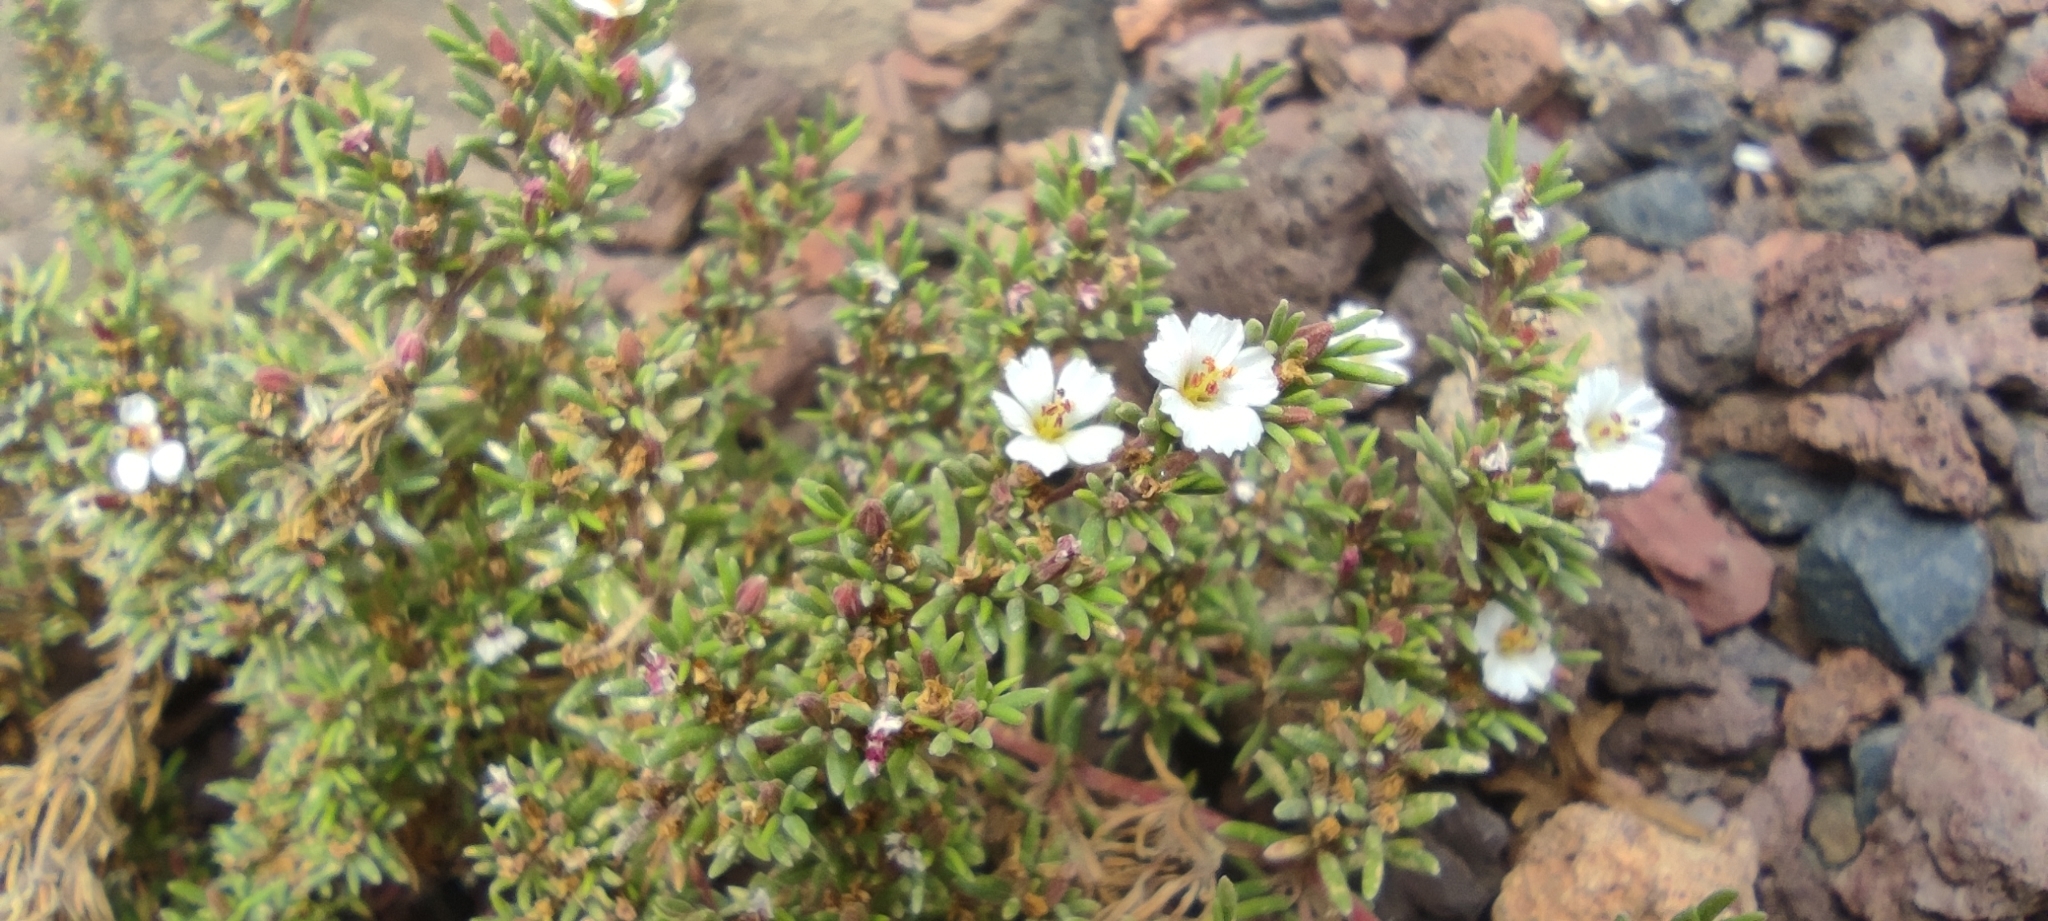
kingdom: Plantae
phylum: Tracheophyta
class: Magnoliopsida
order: Caryophyllales
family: Frankeniaceae
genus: Frankenia
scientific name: Frankenia capitata
